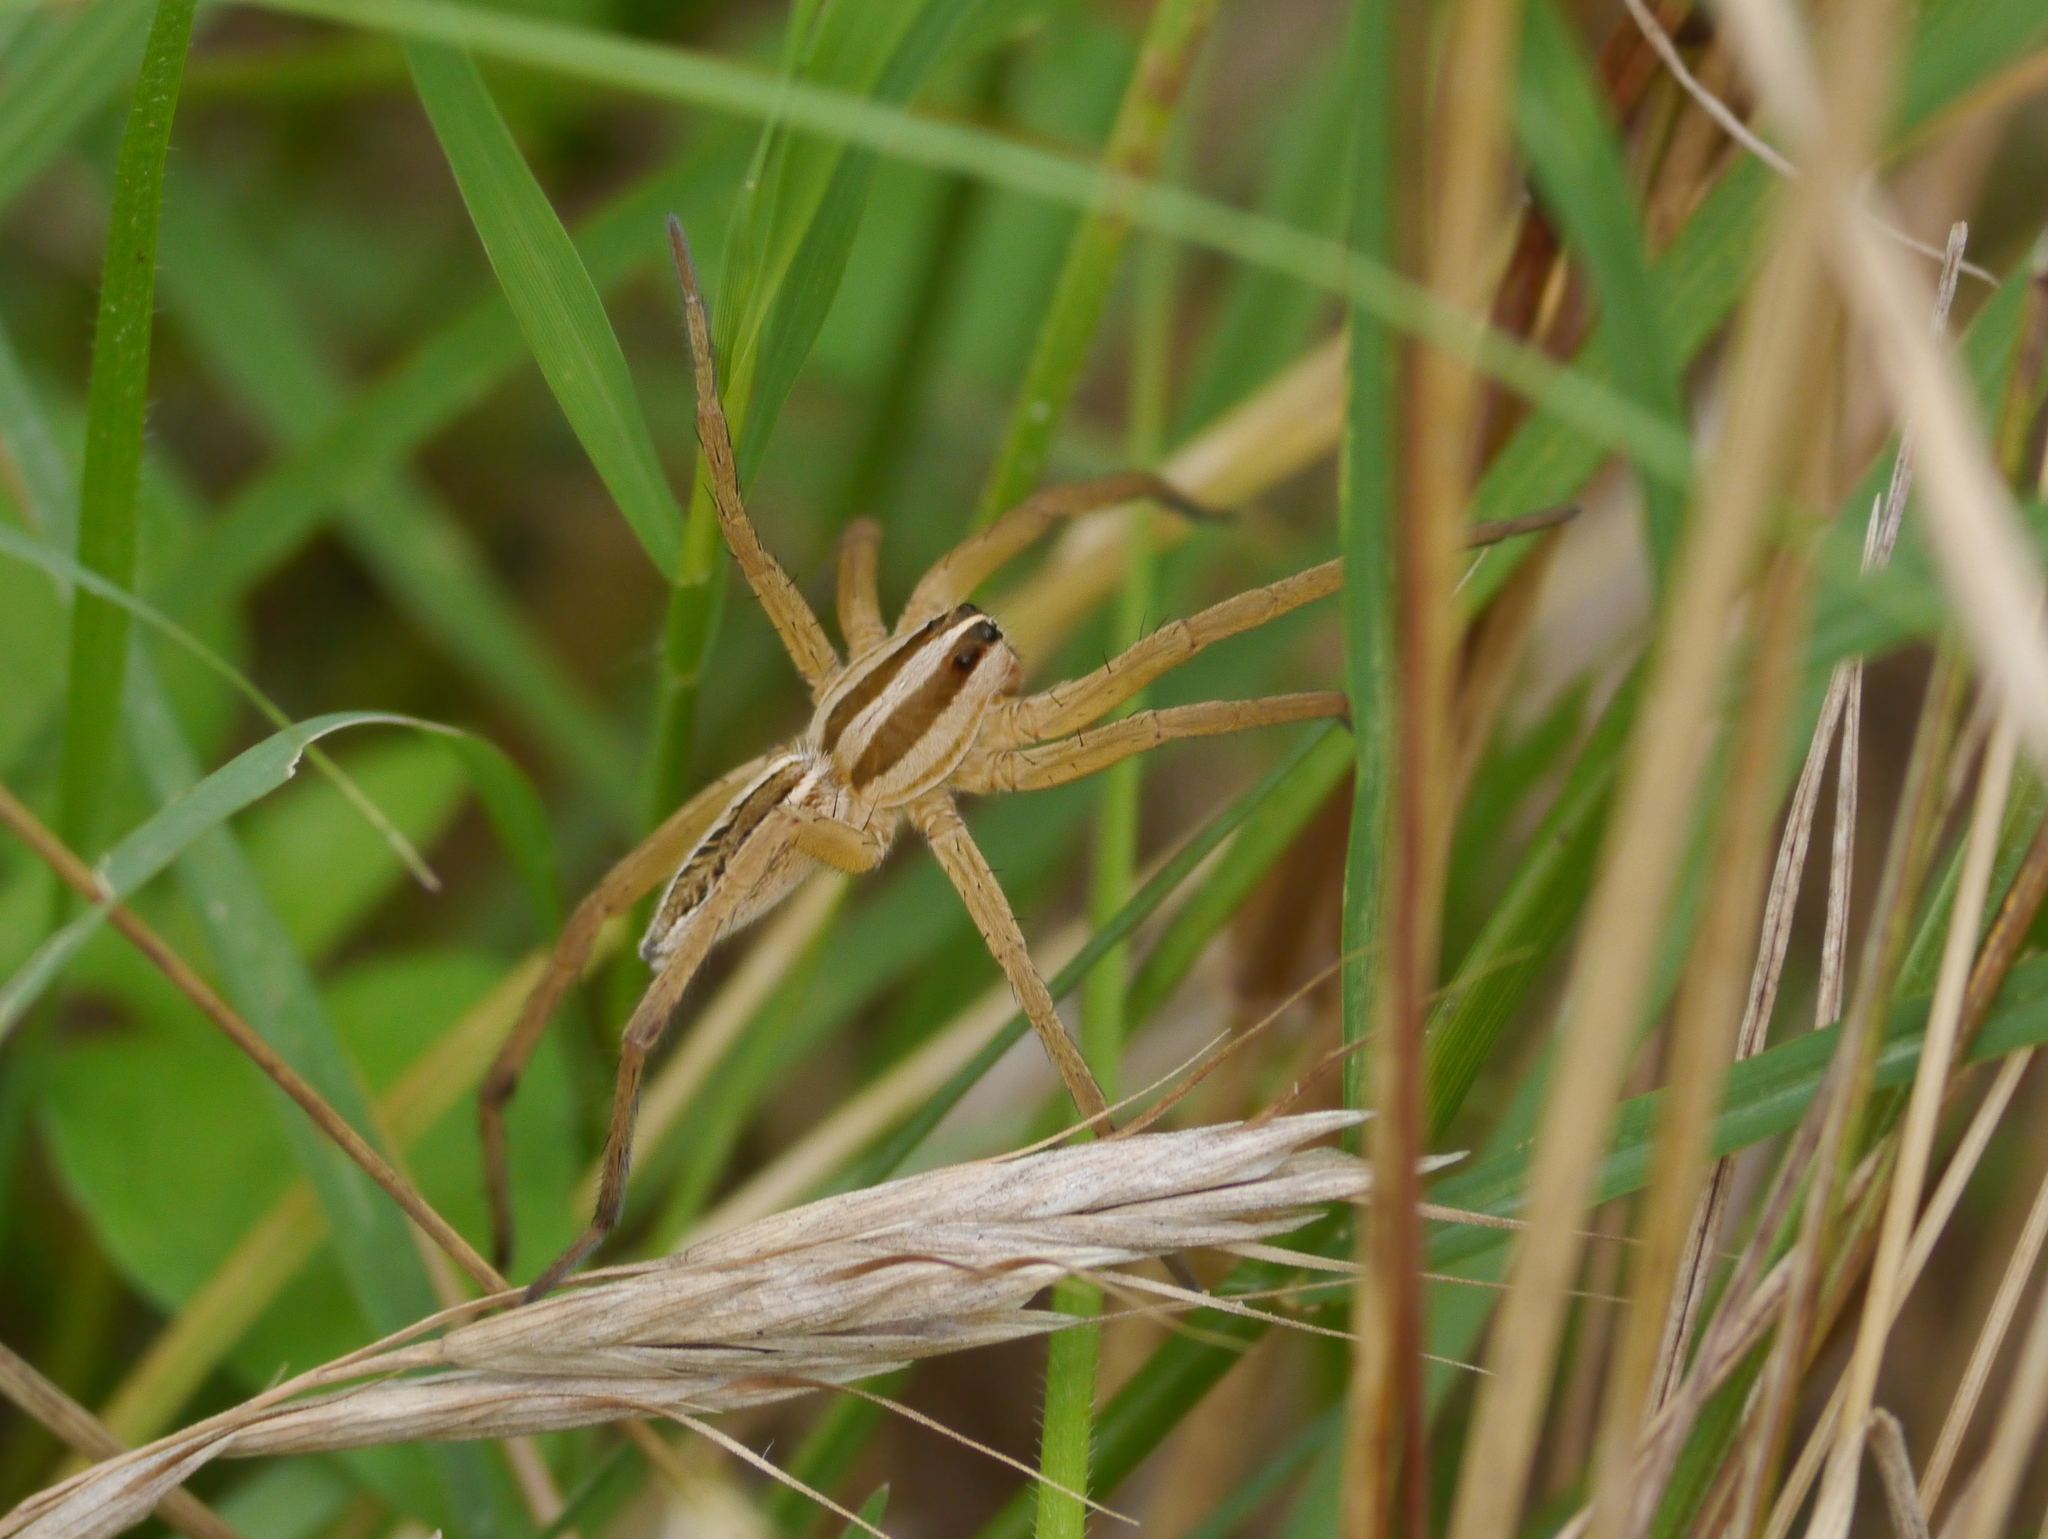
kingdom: Animalia
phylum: Arthropoda
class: Arachnida
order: Araneae
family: Lycosidae
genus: Rabidosa
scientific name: Rabidosa rabida
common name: Rabid wolf spider
